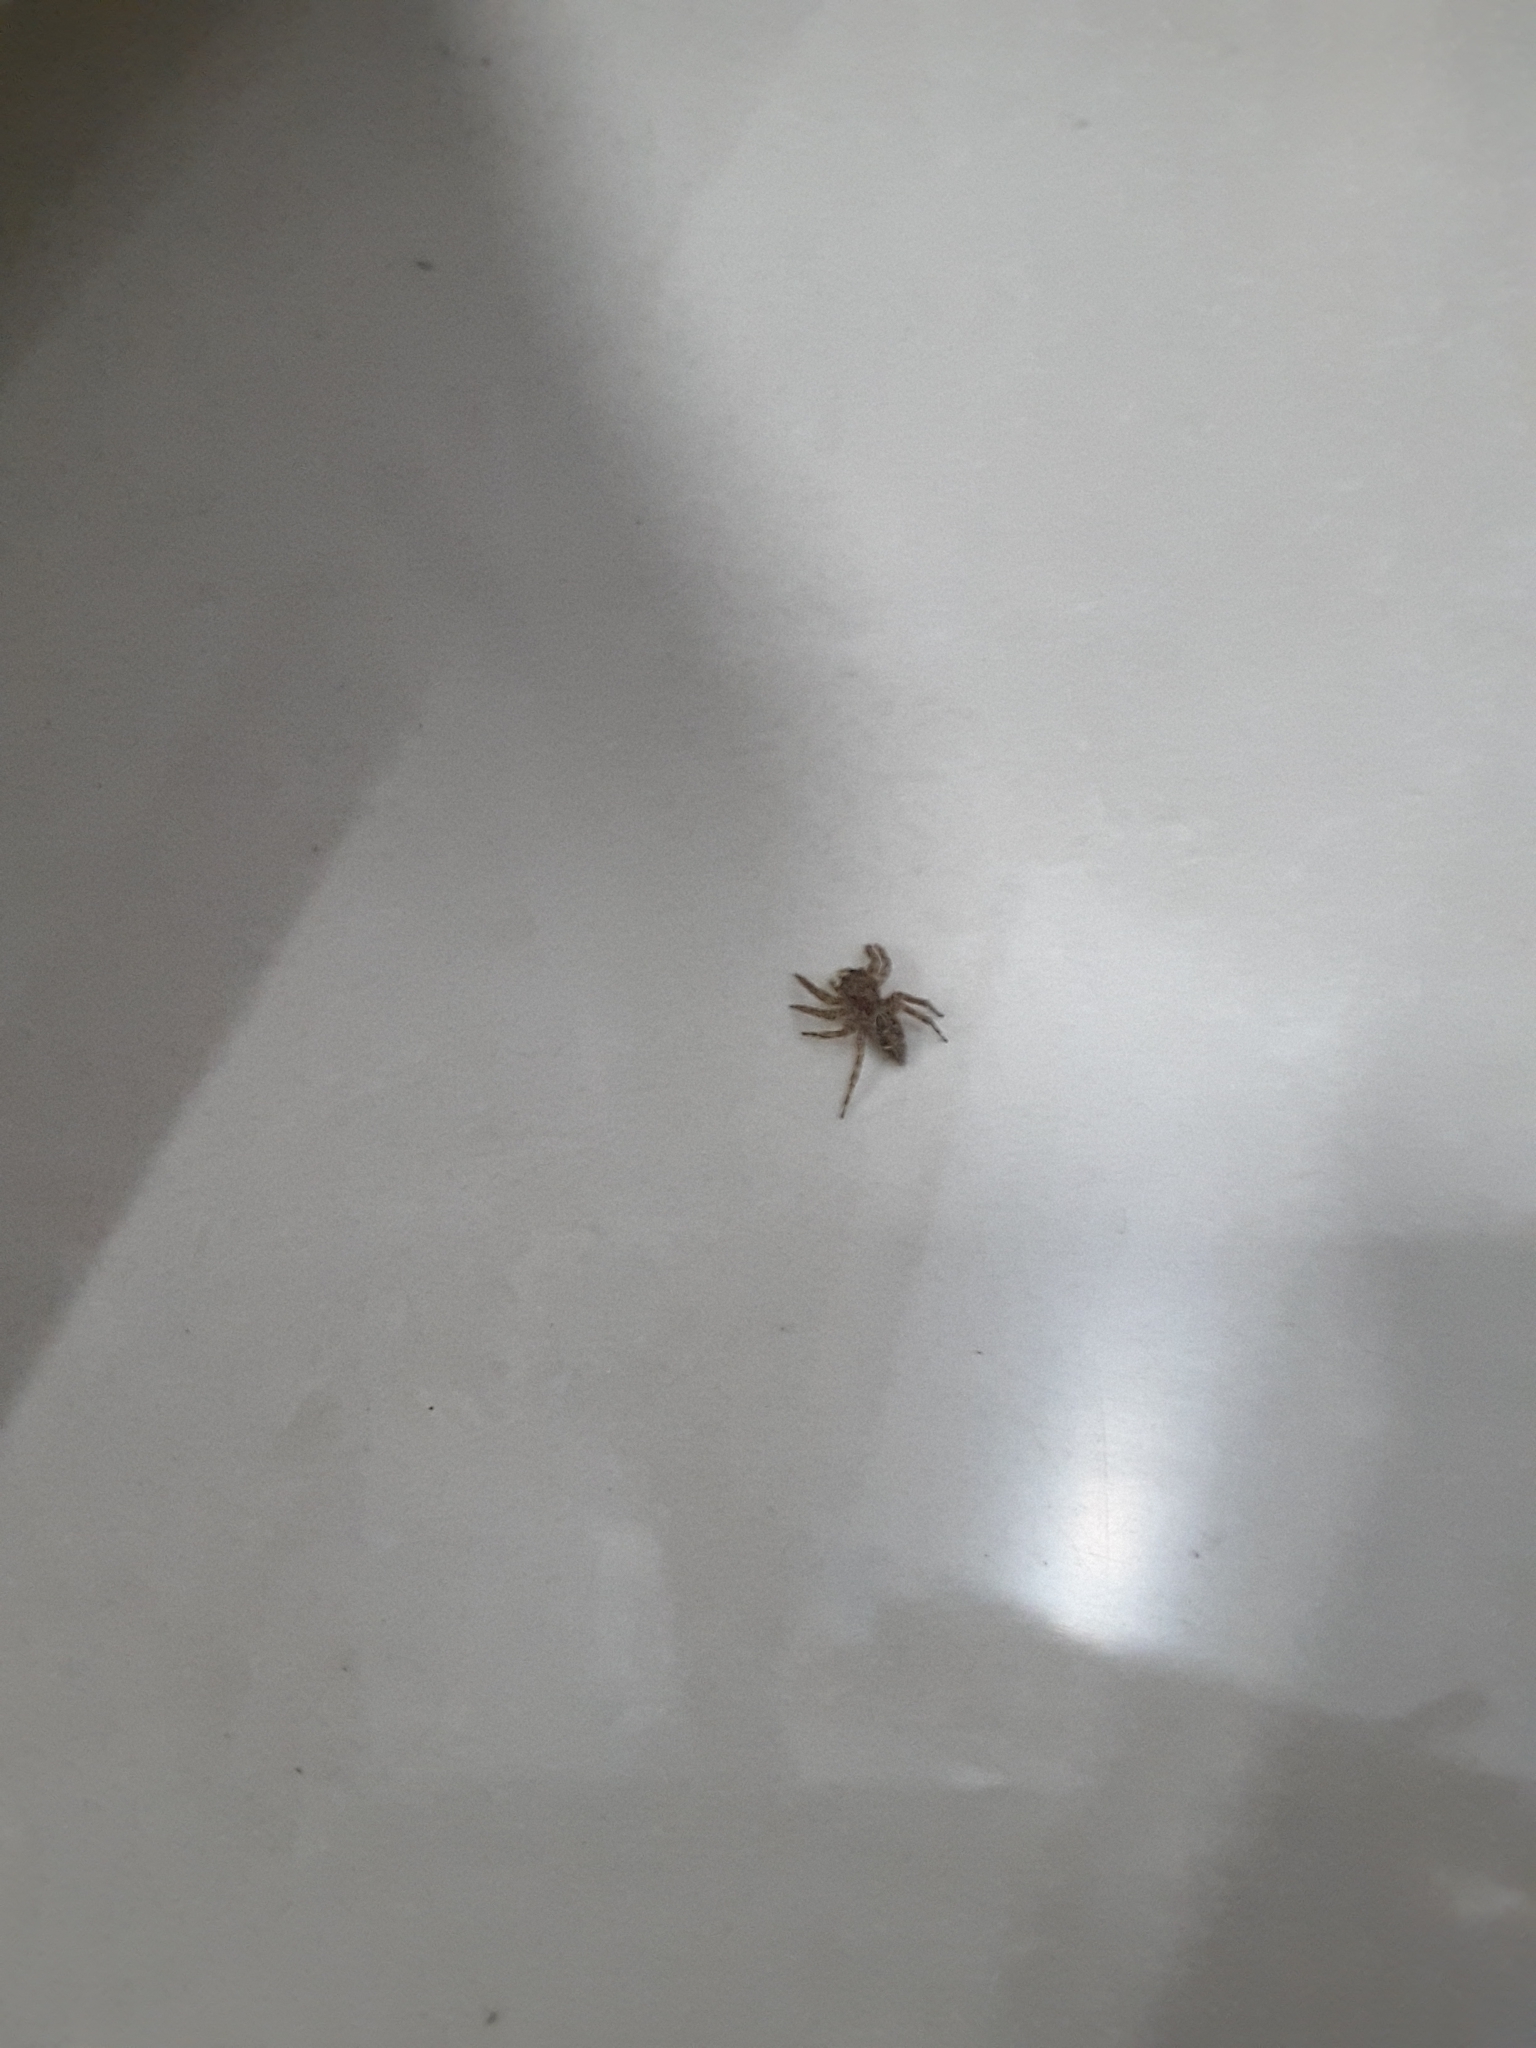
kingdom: Animalia
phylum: Arthropoda
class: Arachnida
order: Araneae
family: Salticidae
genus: Plexippus
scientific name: Plexippus petersi
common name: Jumping spider
